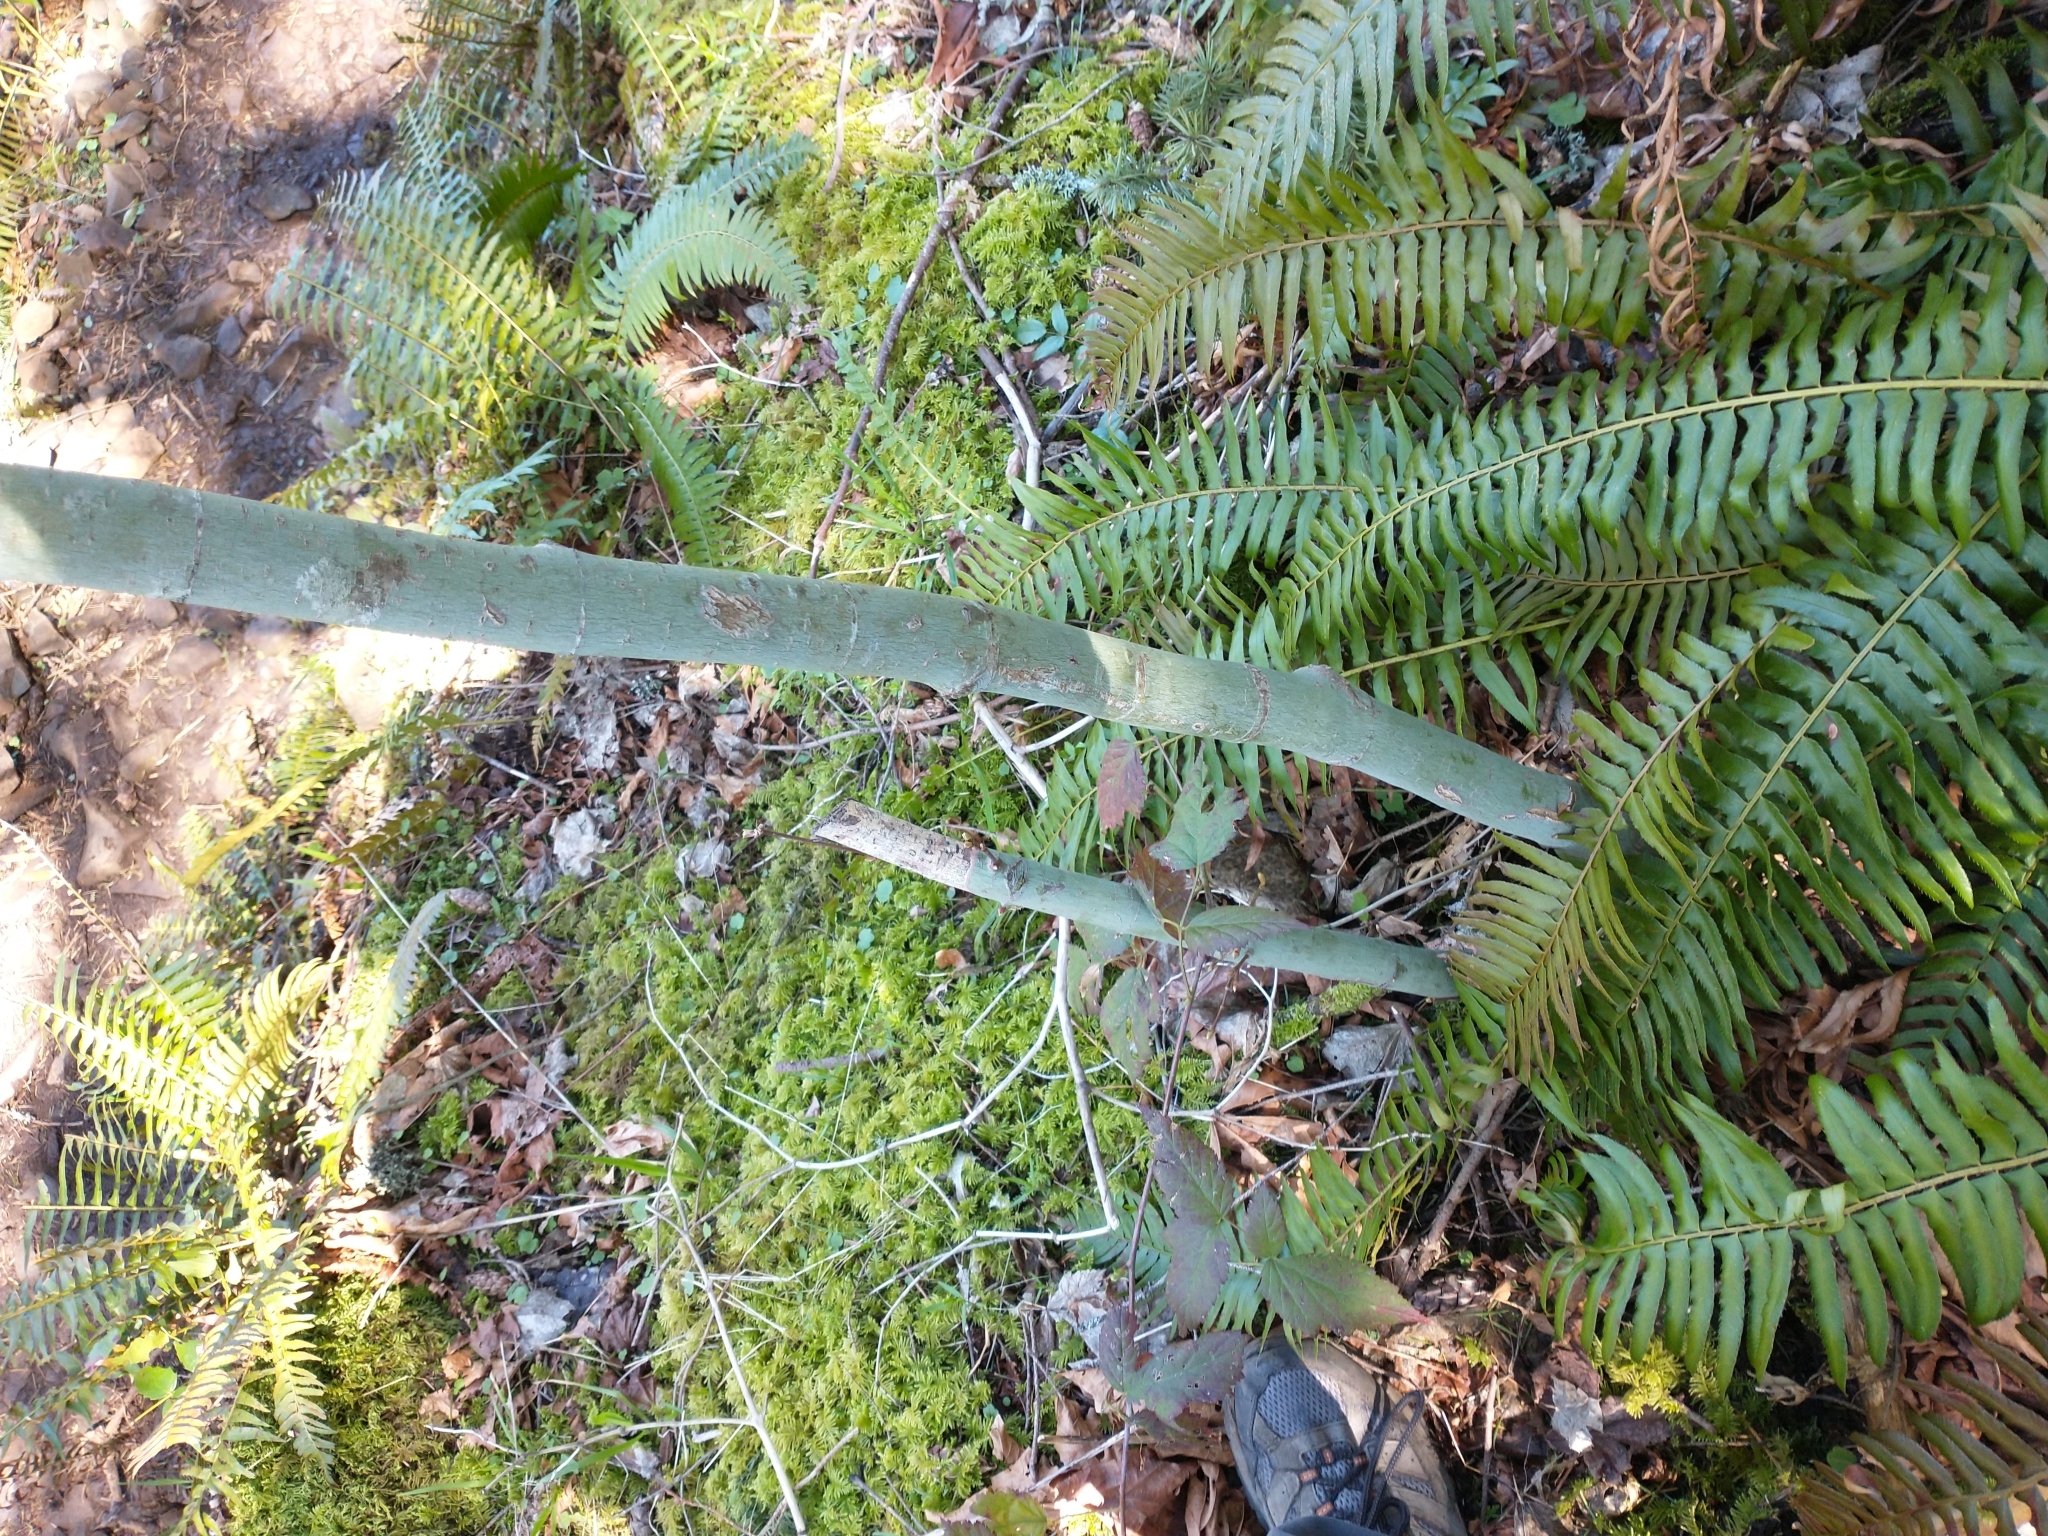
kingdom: Plantae
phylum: Tracheophyta
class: Magnoliopsida
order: Sapindales
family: Sapindaceae
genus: Acer
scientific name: Acer circinatum
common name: Vine maple
